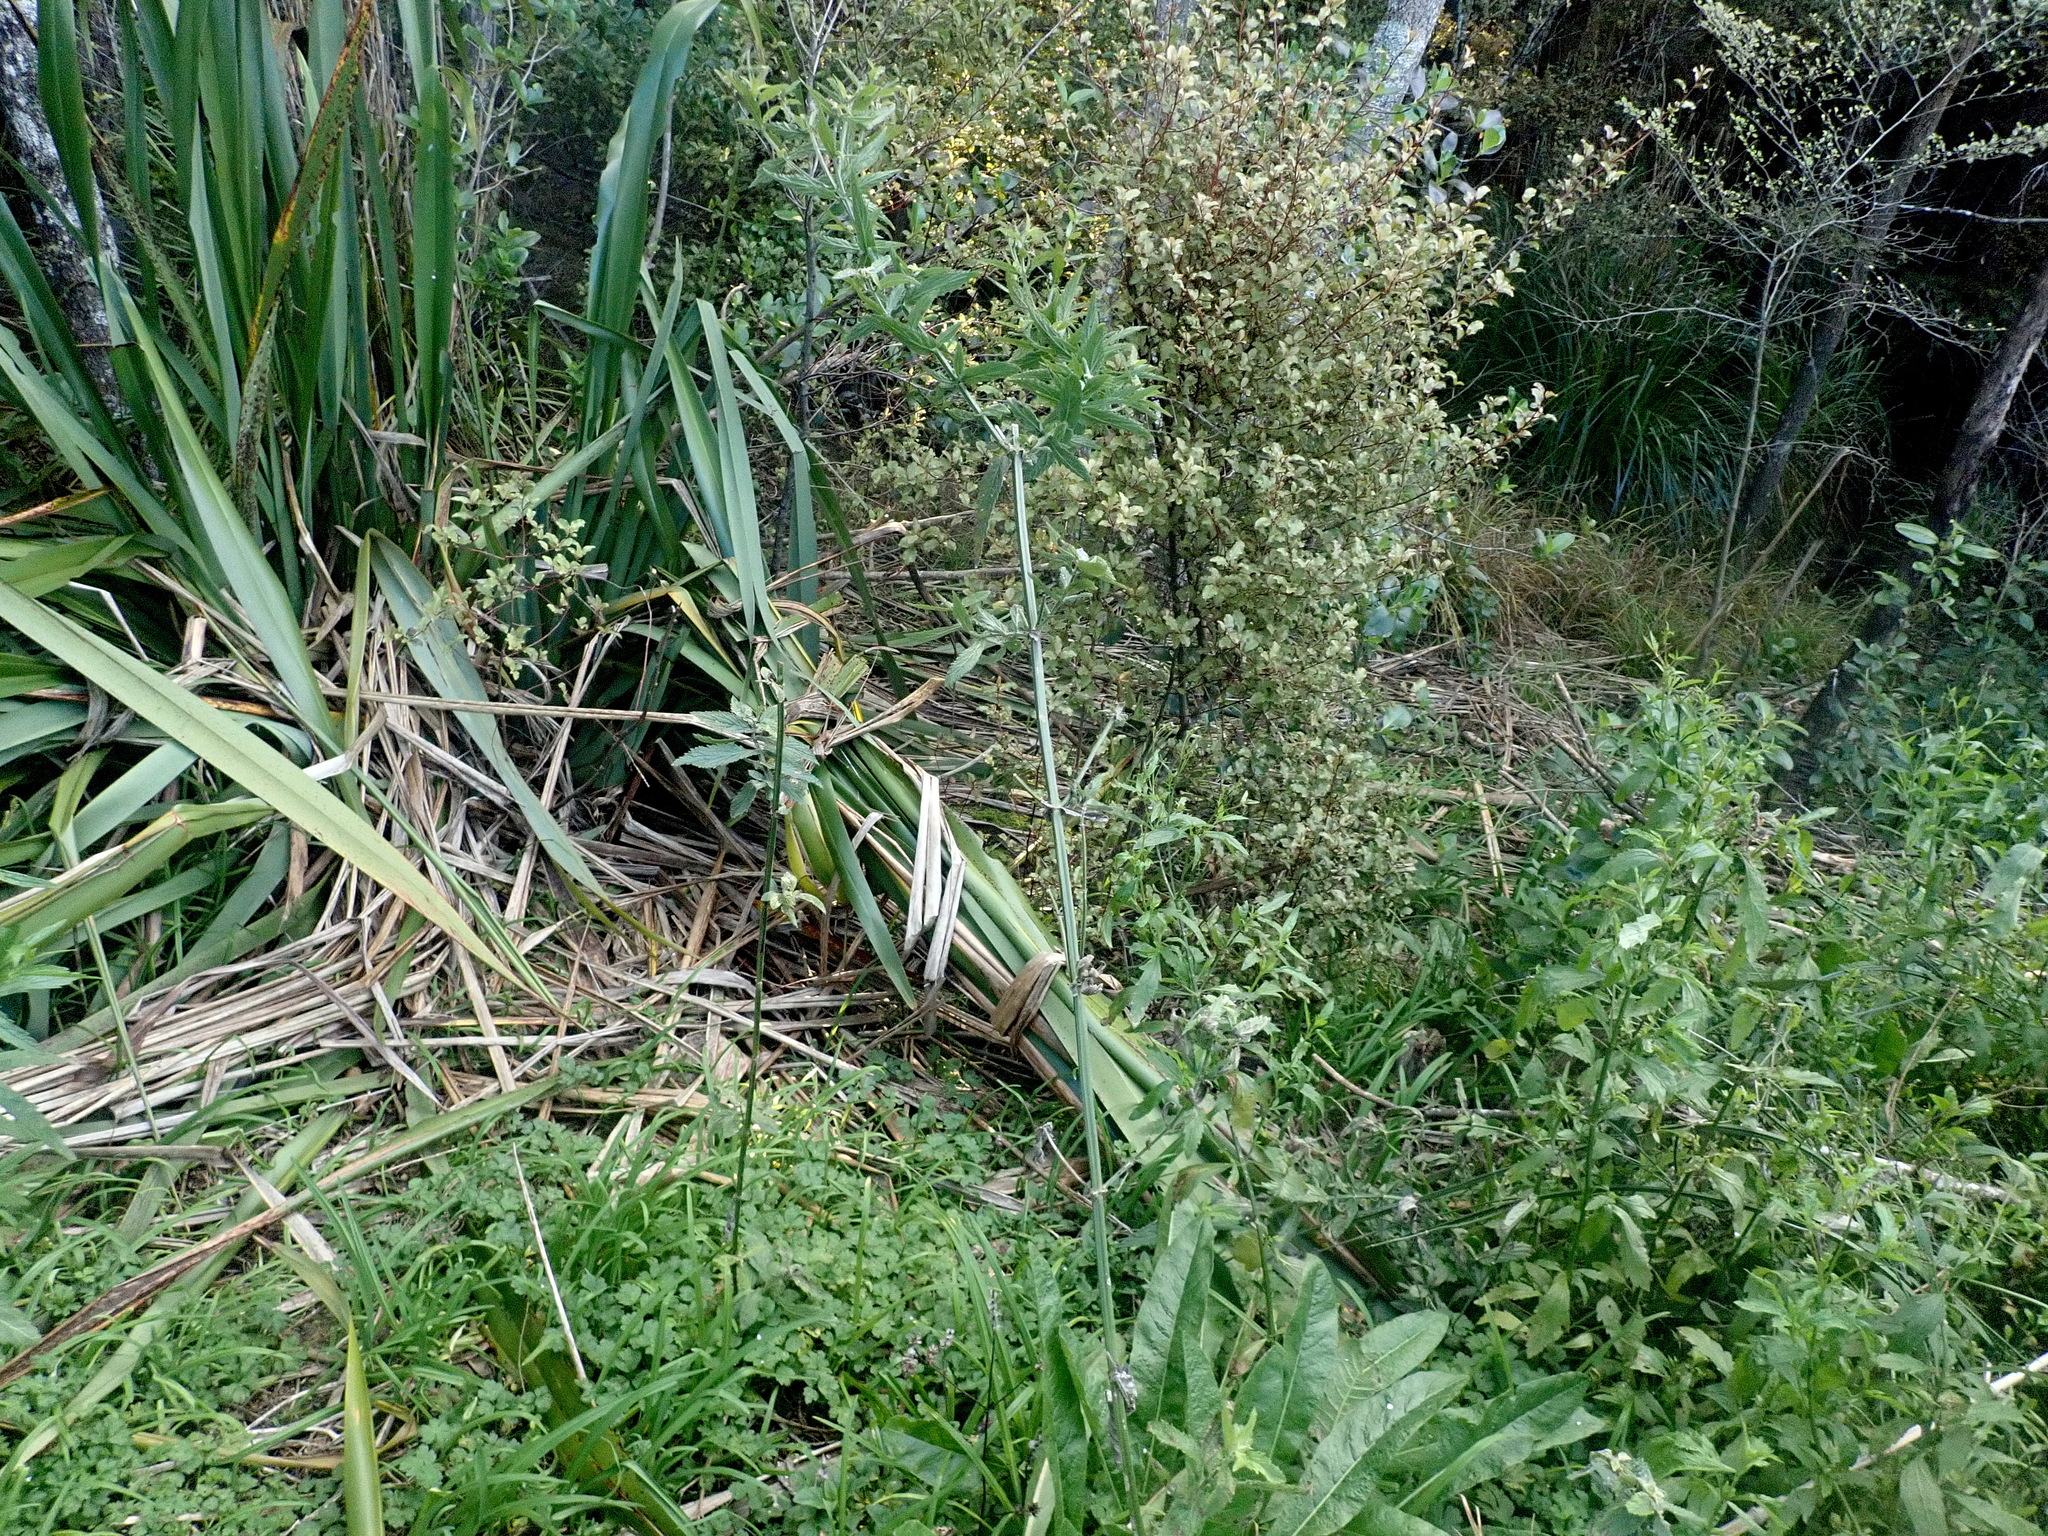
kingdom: Plantae
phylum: Tracheophyta
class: Magnoliopsida
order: Ericales
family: Primulaceae
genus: Myrsine
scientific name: Myrsine australis
